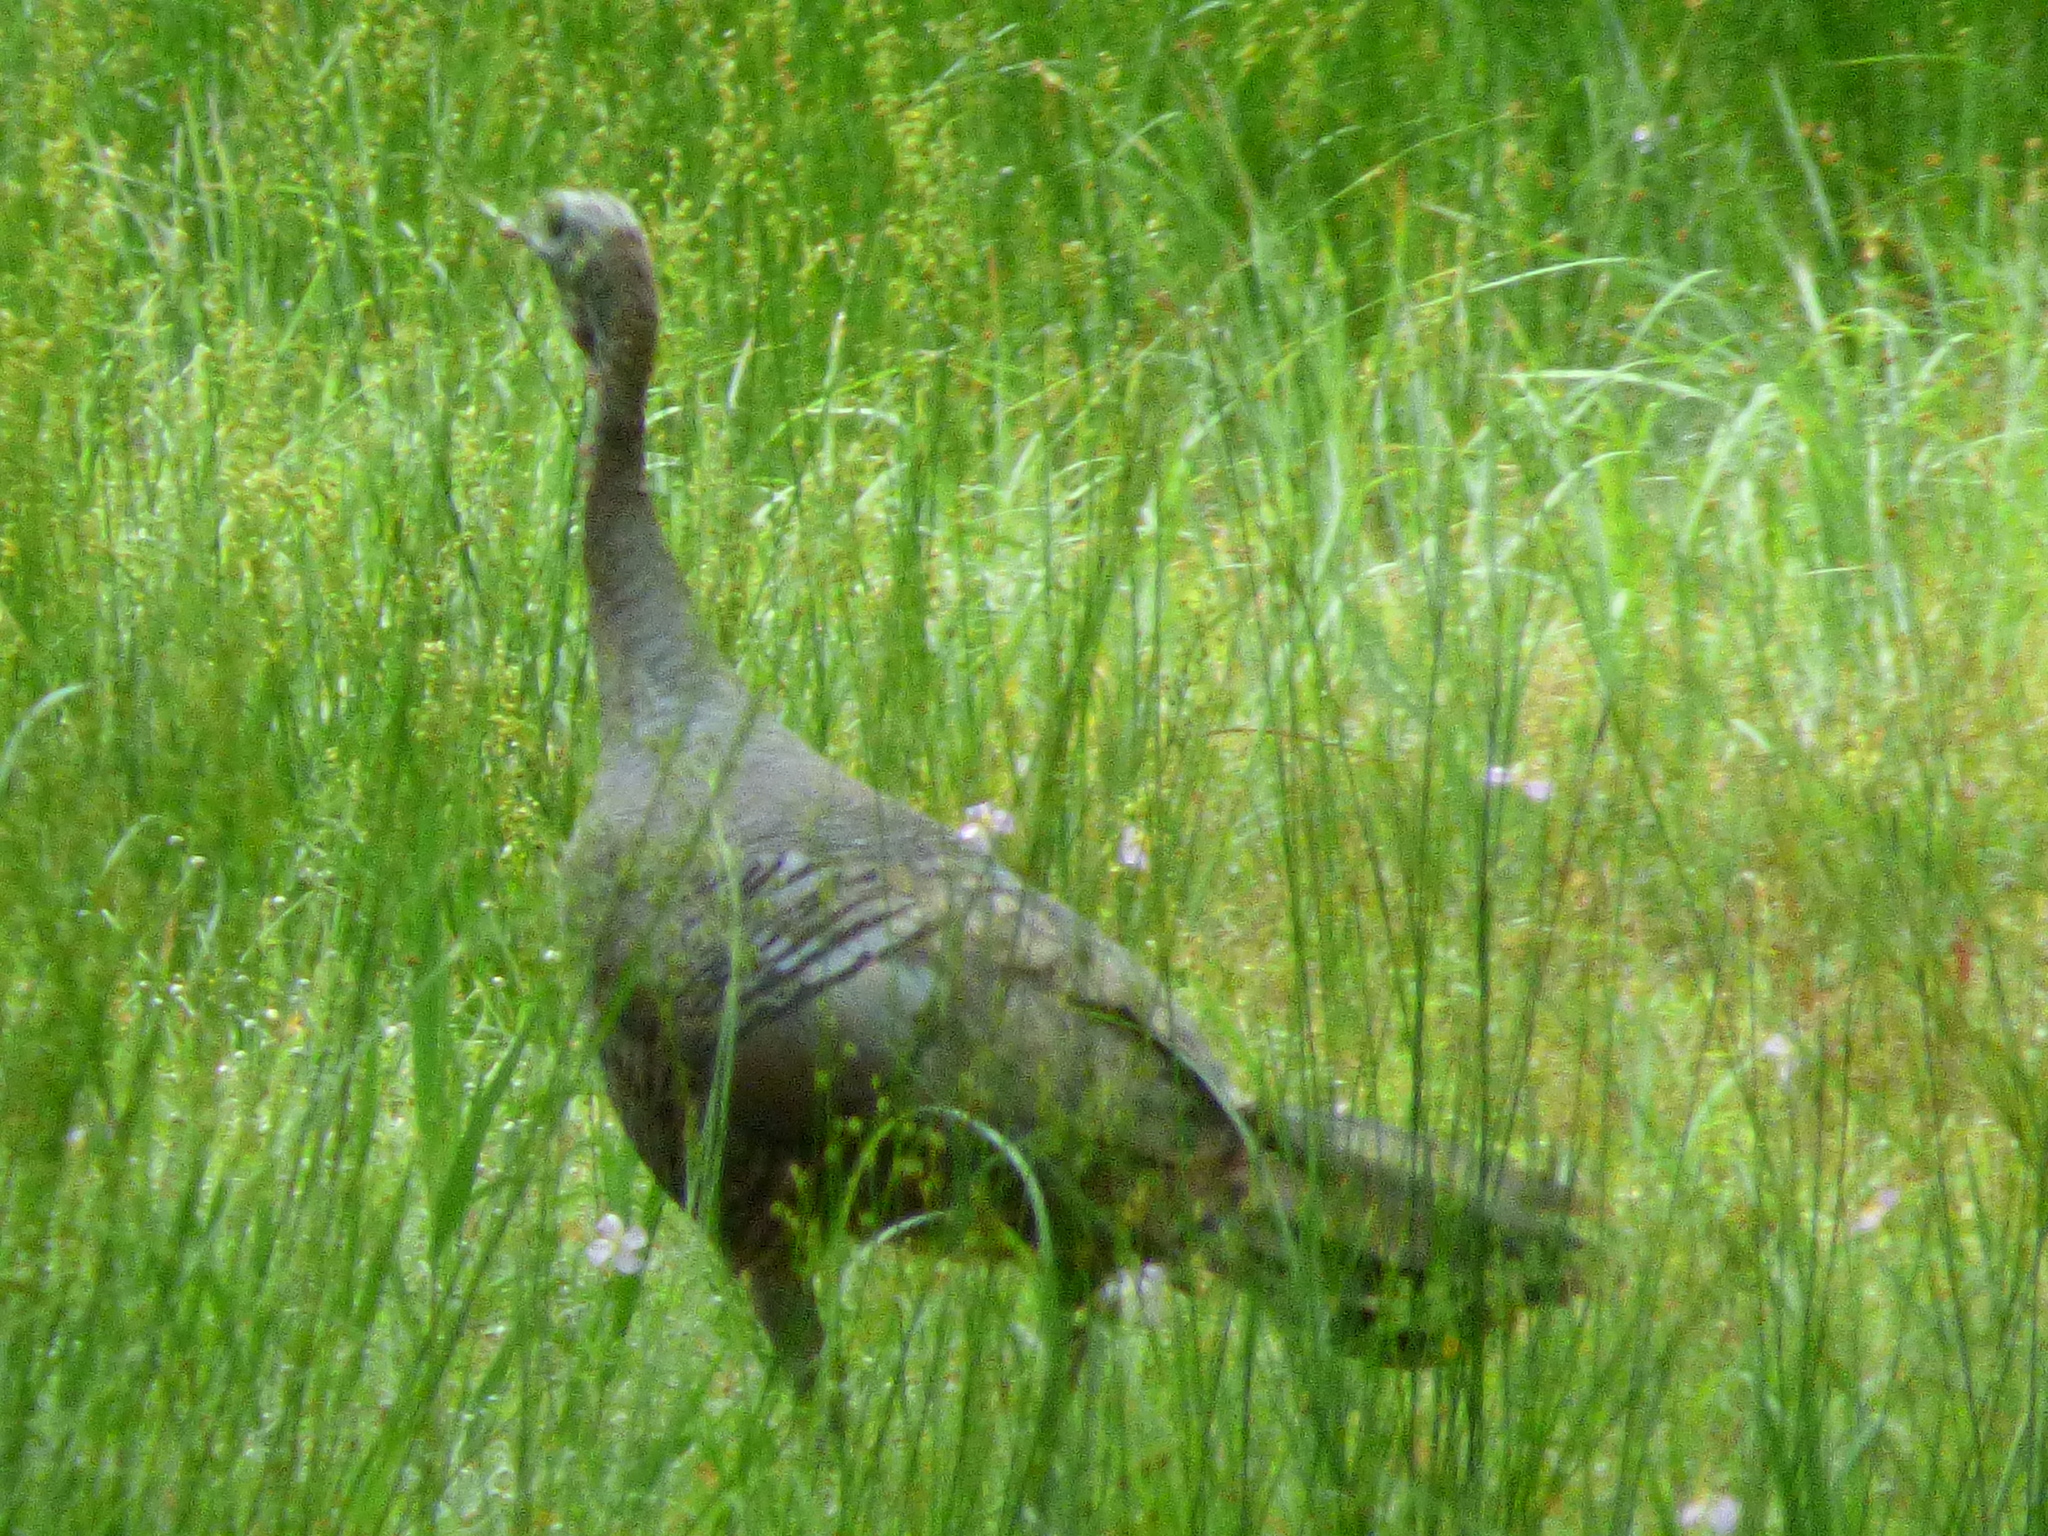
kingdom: Animalia
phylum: Chordata
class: Aves
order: Galliformes
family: Phasianidae
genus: Meleagris
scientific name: Meleagris gallopavo
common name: Wild turkey
